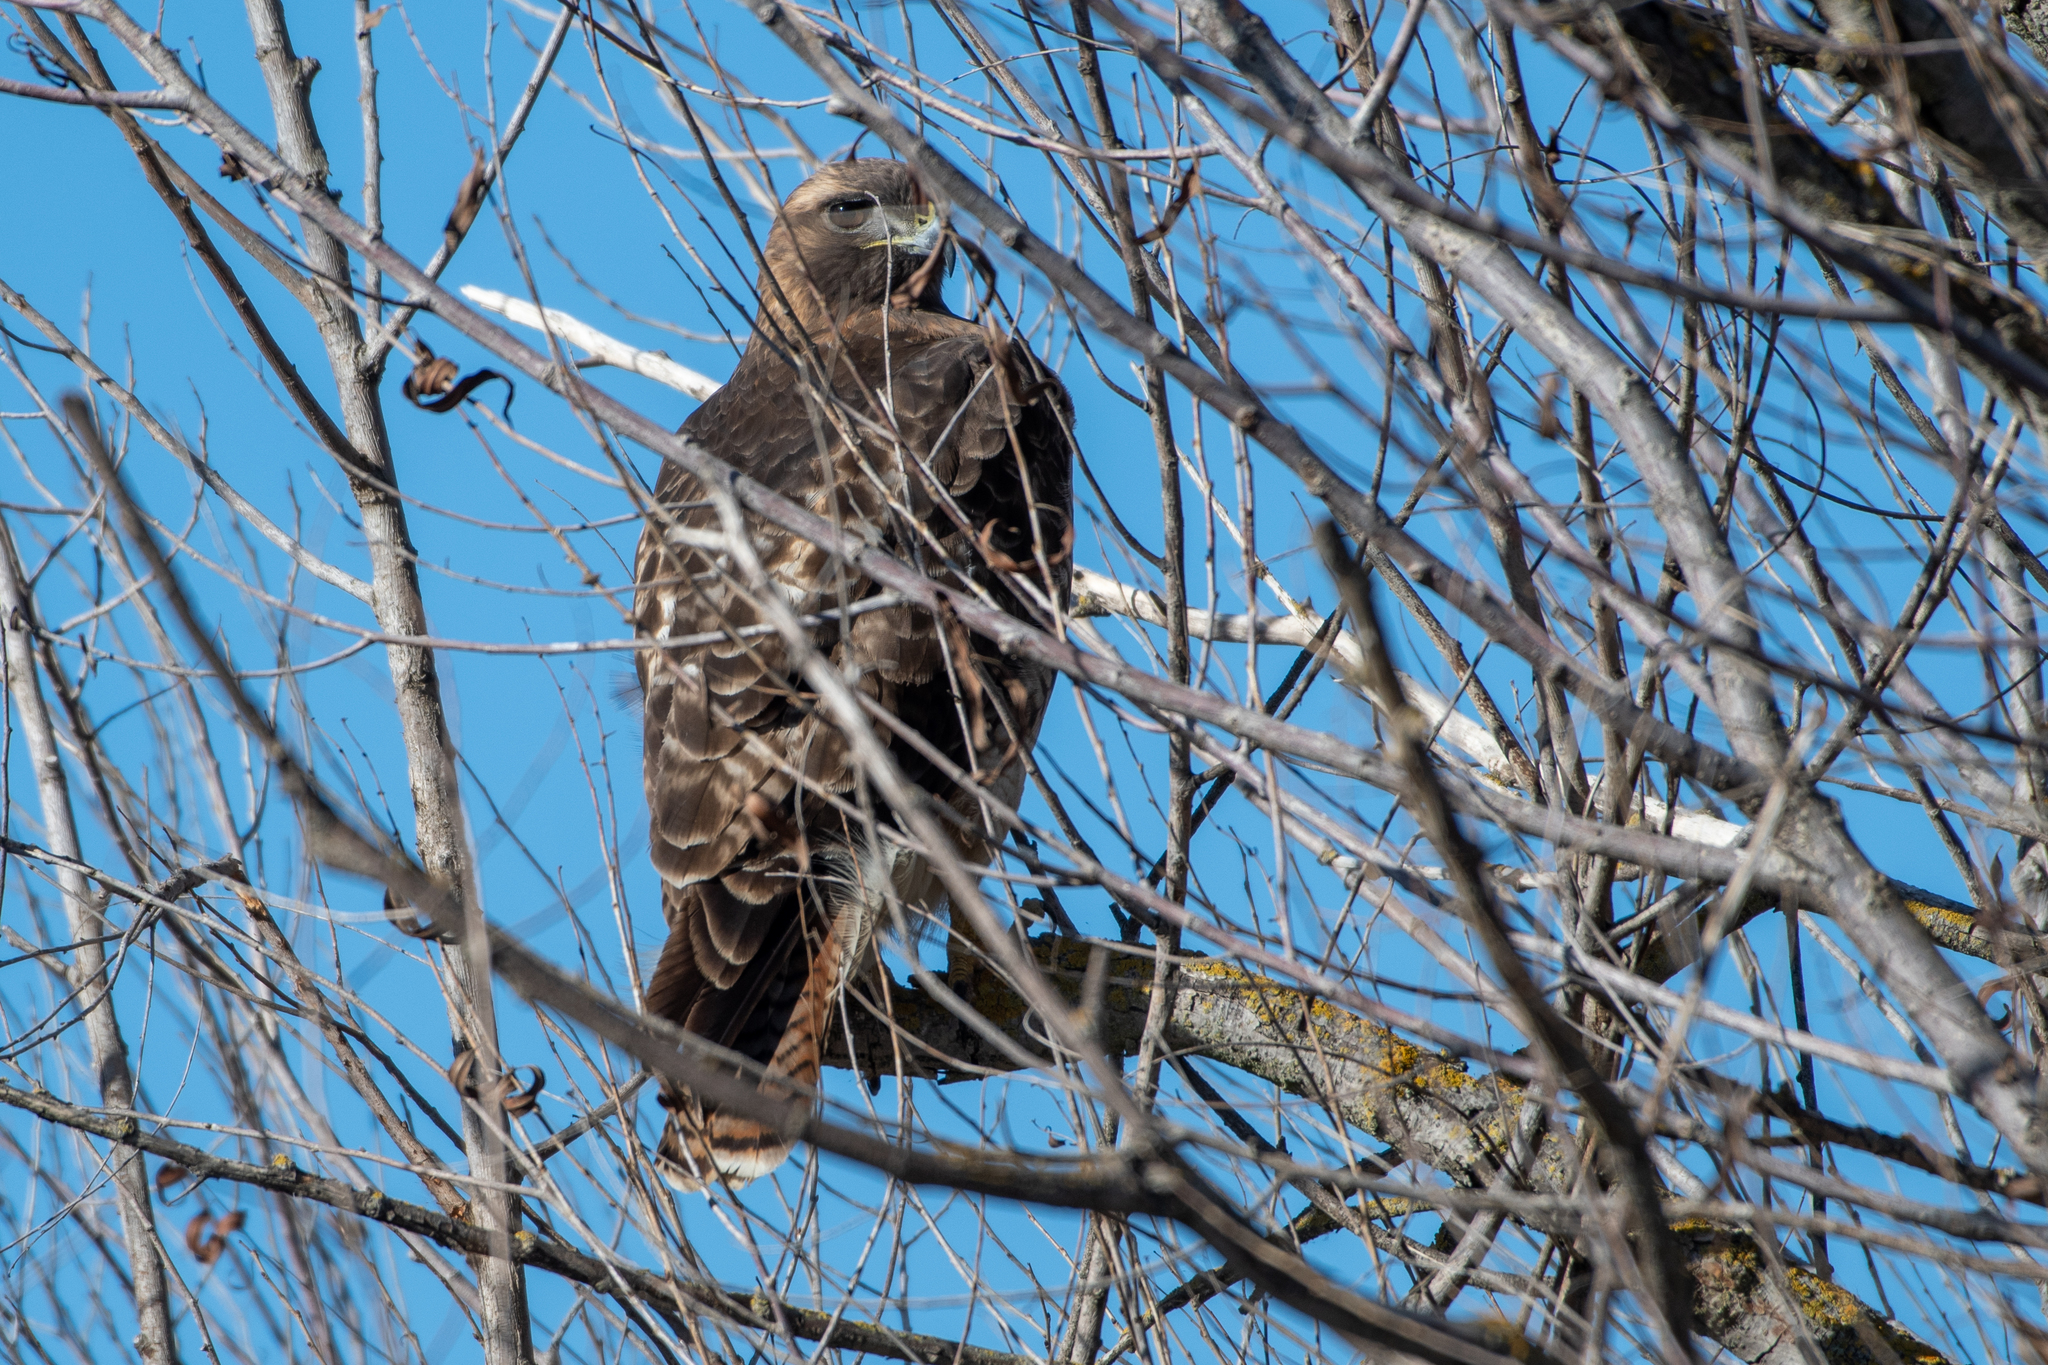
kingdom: Animalia
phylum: Chordata
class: Aves
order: Accipitriformes
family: Accipitridae
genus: Buteo
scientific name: Buteo jamaicensis
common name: Red-tailed hawk
